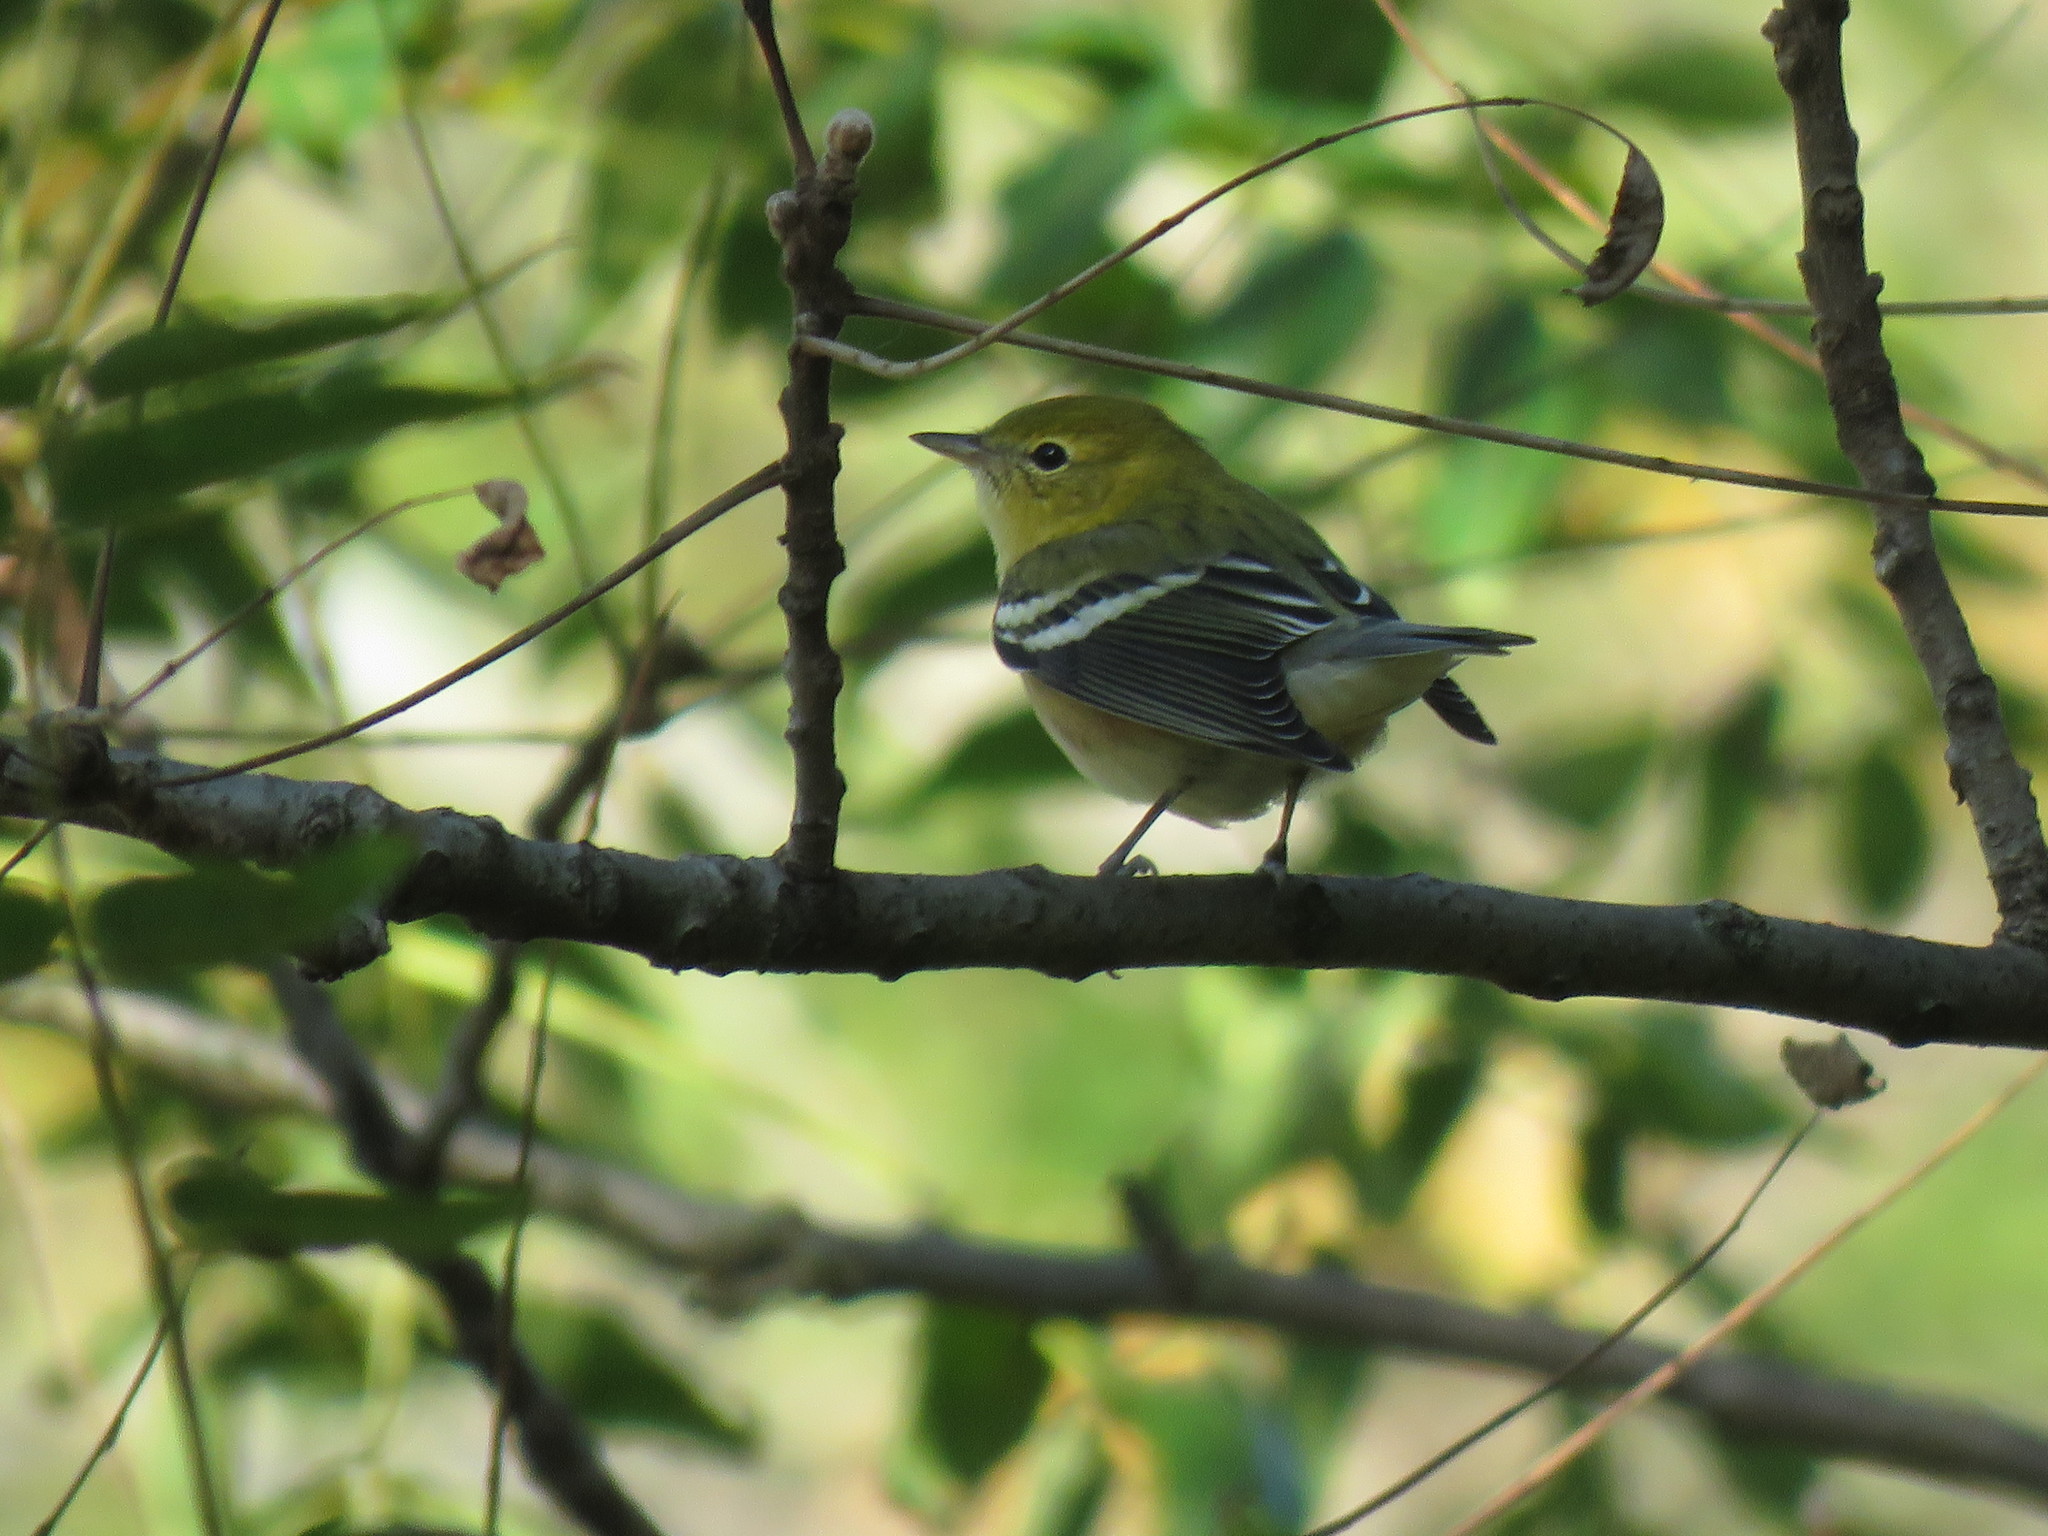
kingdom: Animalia
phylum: Chordata
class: Aves
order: Passeriformes
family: Parulidae
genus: Setophaga
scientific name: Setophaga castanea
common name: Bay-breasted warbler
